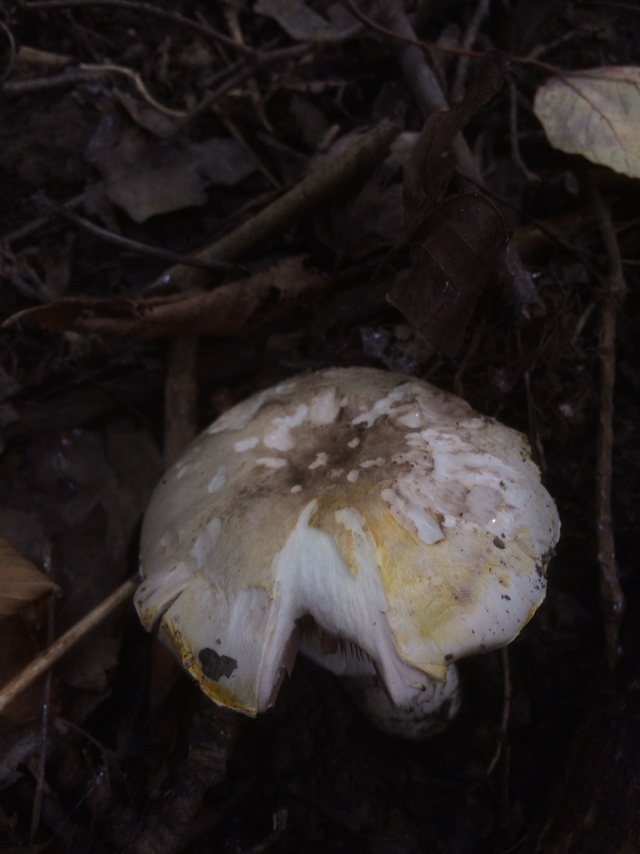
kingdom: Fungi
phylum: Basidiomycota
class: Agaricomycetes
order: Agaricales
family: Agaricaceae
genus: Agaricus
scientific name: Agaricus xanthodermus
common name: Yellow stainer
